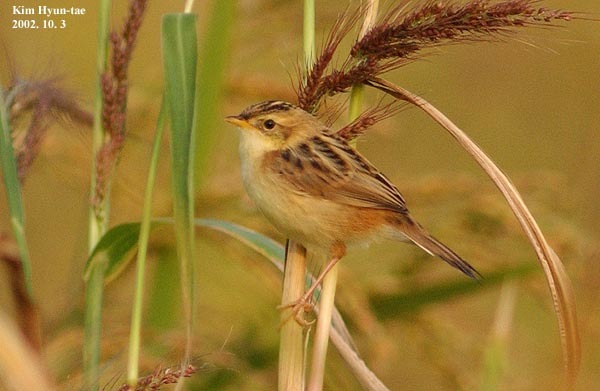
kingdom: Animalia
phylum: Chordata
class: Aves
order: Passeriformes
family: Cisticolidae
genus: Cisticola
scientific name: Cisticola juncidis
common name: Zitting cisticola
